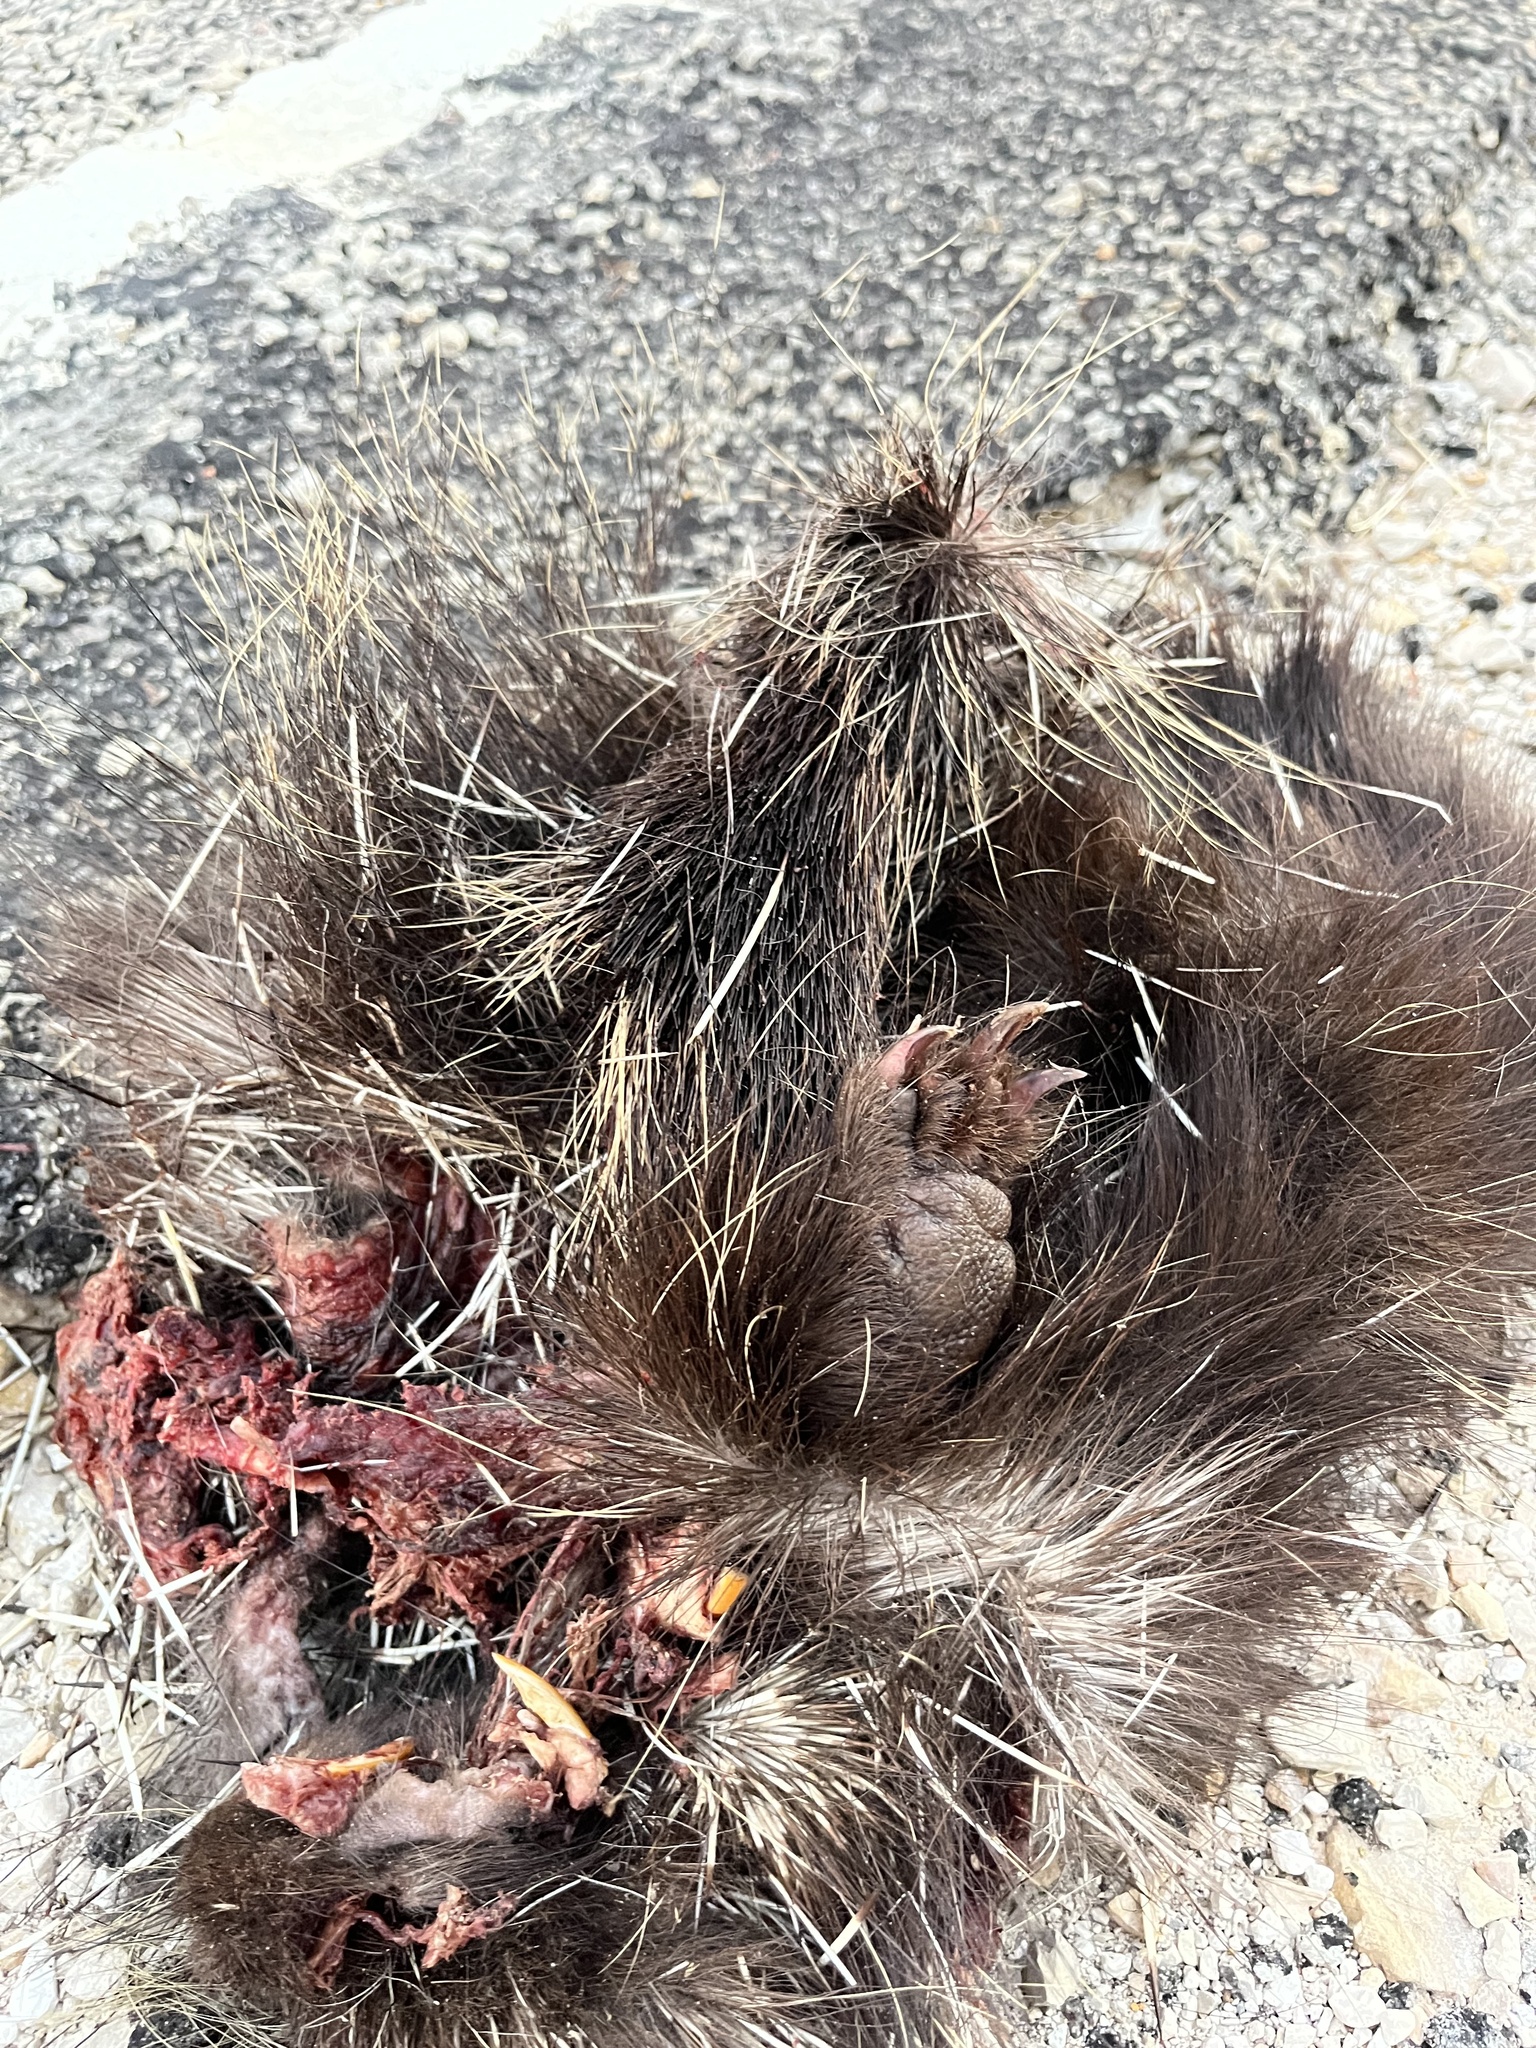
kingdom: Animalia
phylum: Chordata
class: Mammalia
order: Rodentia
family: Erethizontidae
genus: Erethizon
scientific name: Erethizon dorsatus
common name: North american porcupine
